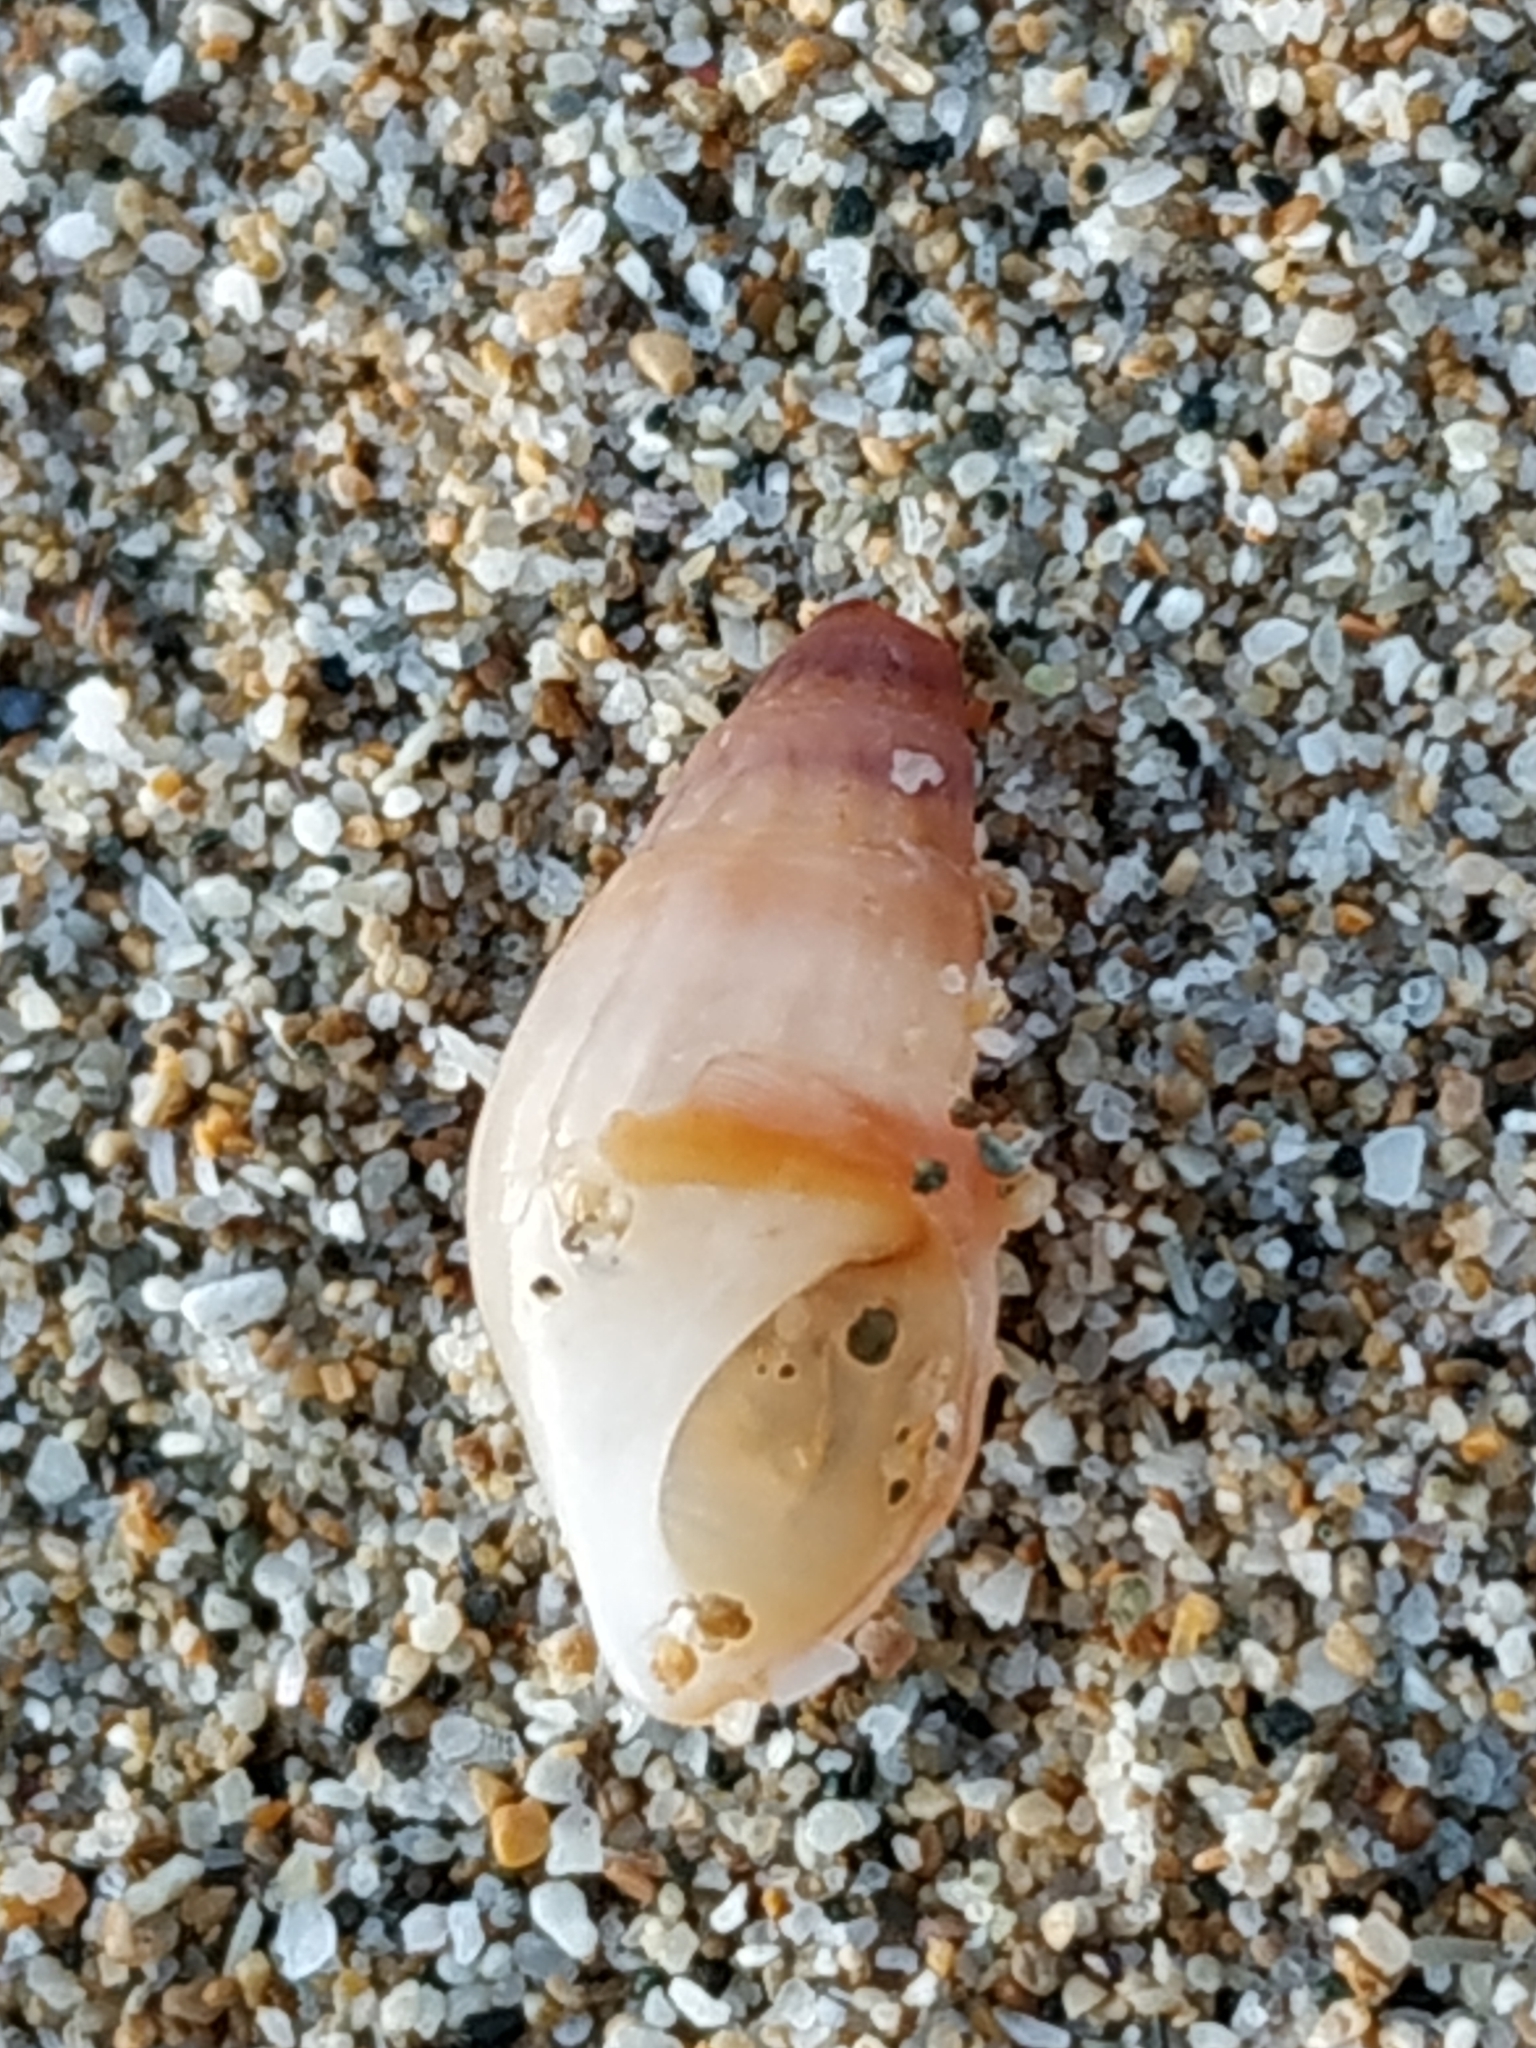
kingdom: Animalia
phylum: Mollusca
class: Gastropoda
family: Thiaridae
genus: Sermyla
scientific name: Sermyla riquetii
